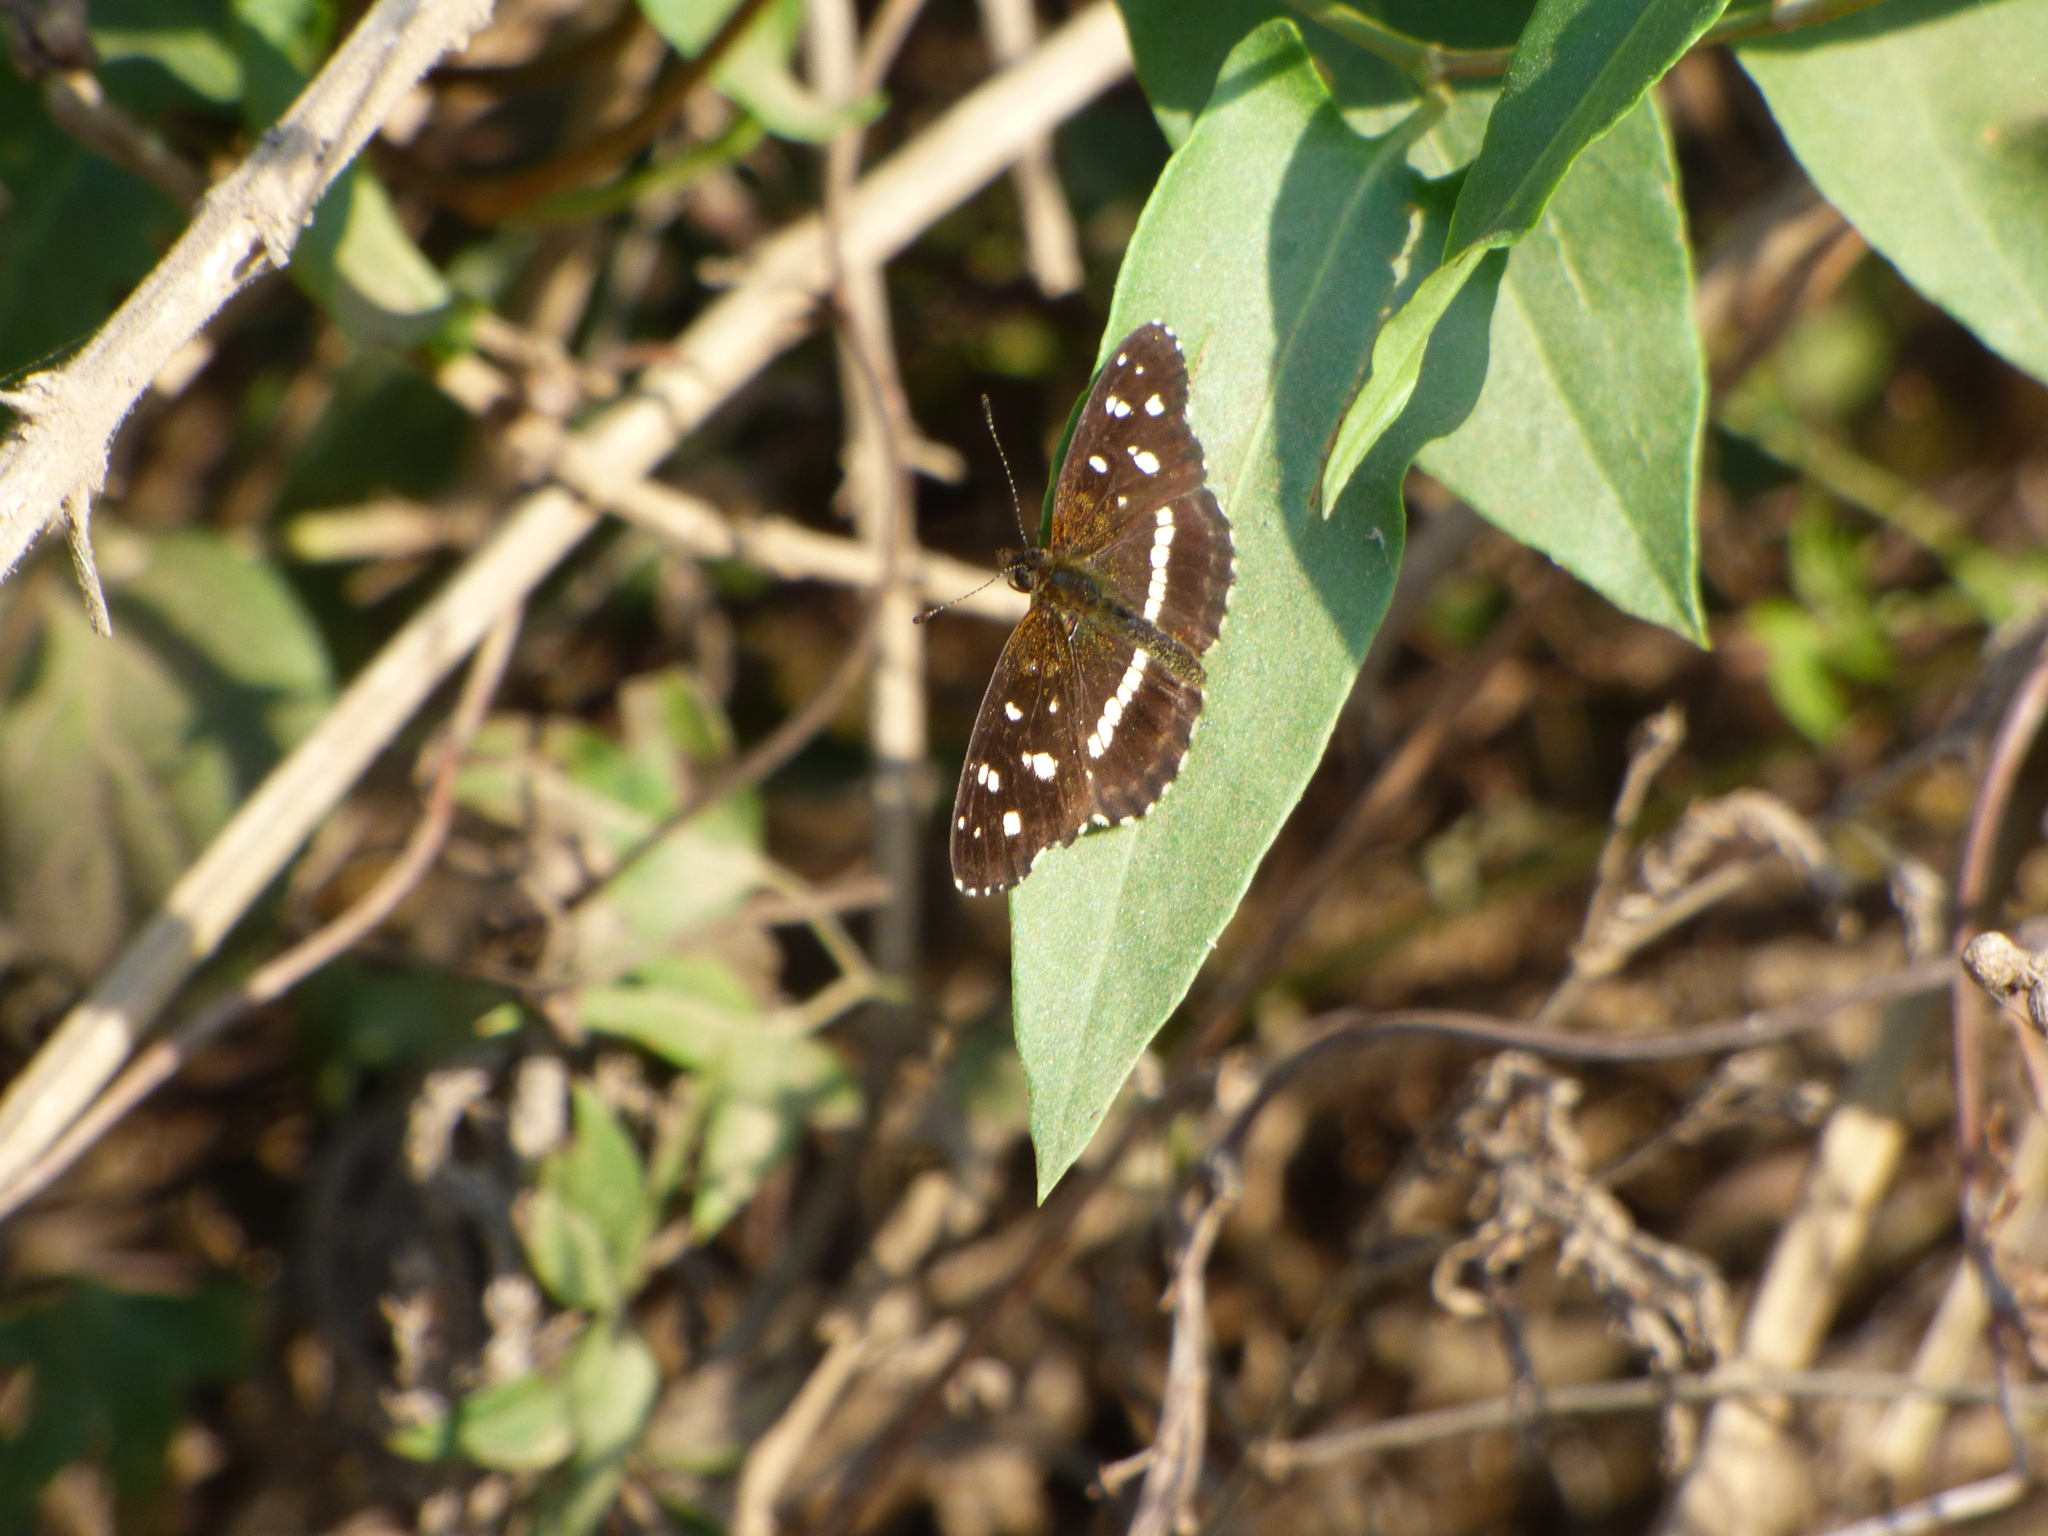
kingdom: Animalia
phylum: Arthropoda
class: Insecta
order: Lepidoptera
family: Nymphalidae
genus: Ortilia
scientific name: Ortilia ithra
